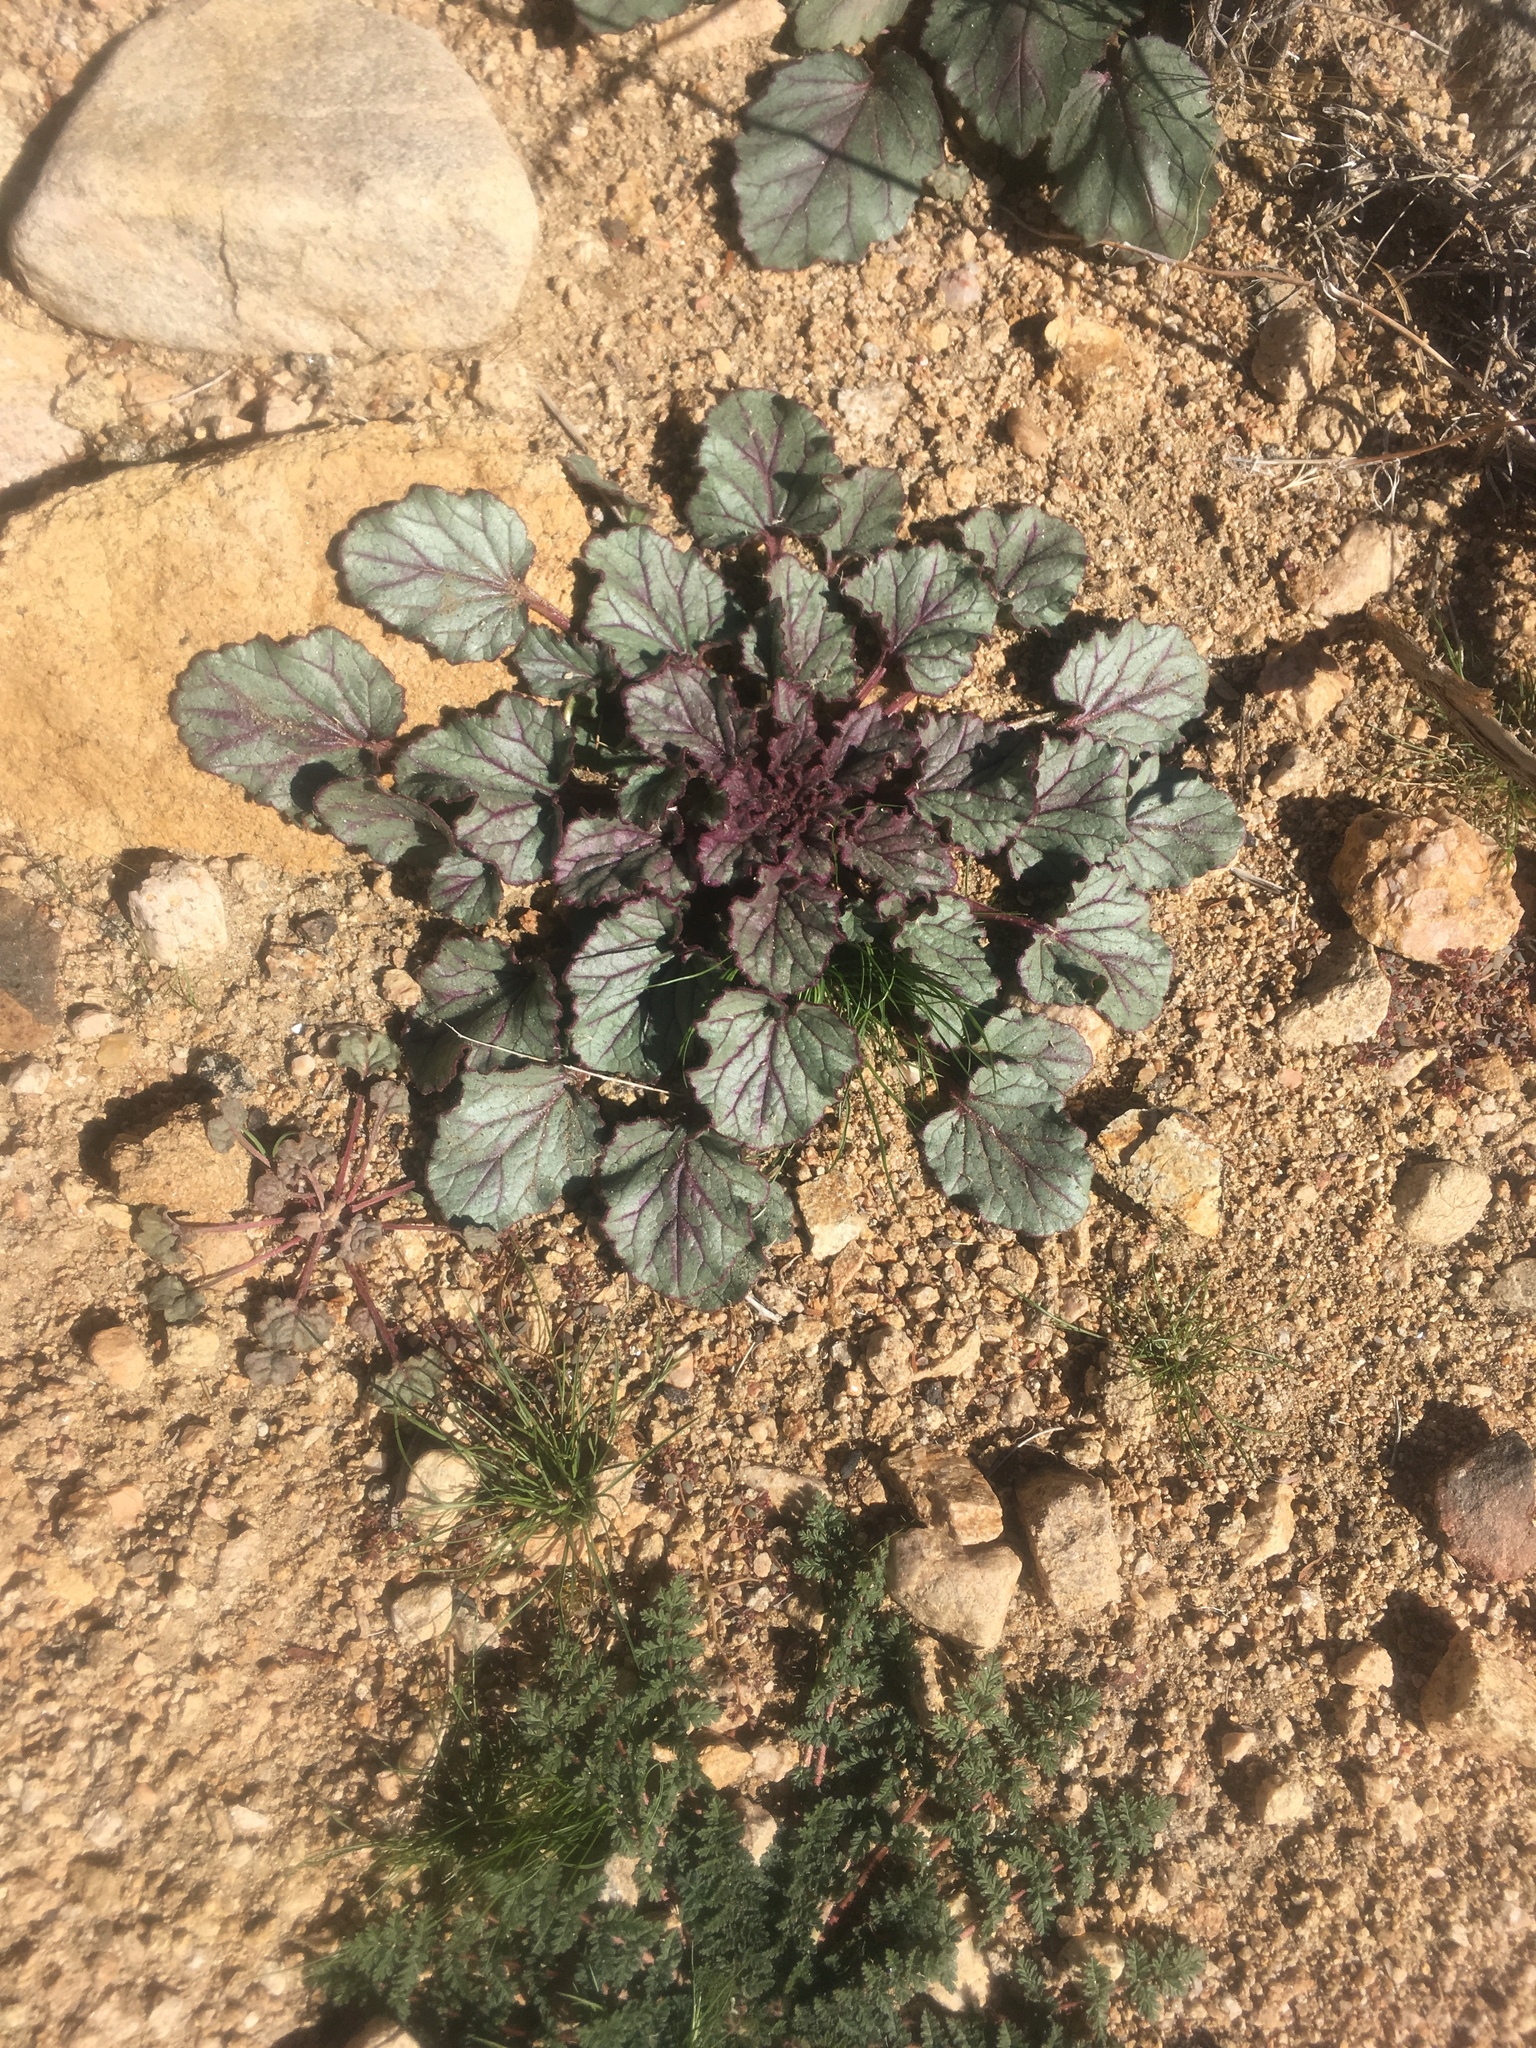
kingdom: Plantae
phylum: Tracheophyta
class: Magnoliopsida
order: Boraginales
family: Hydrophyllaceae
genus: Phacelia
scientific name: Phacelia campanularia
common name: California bluebell
